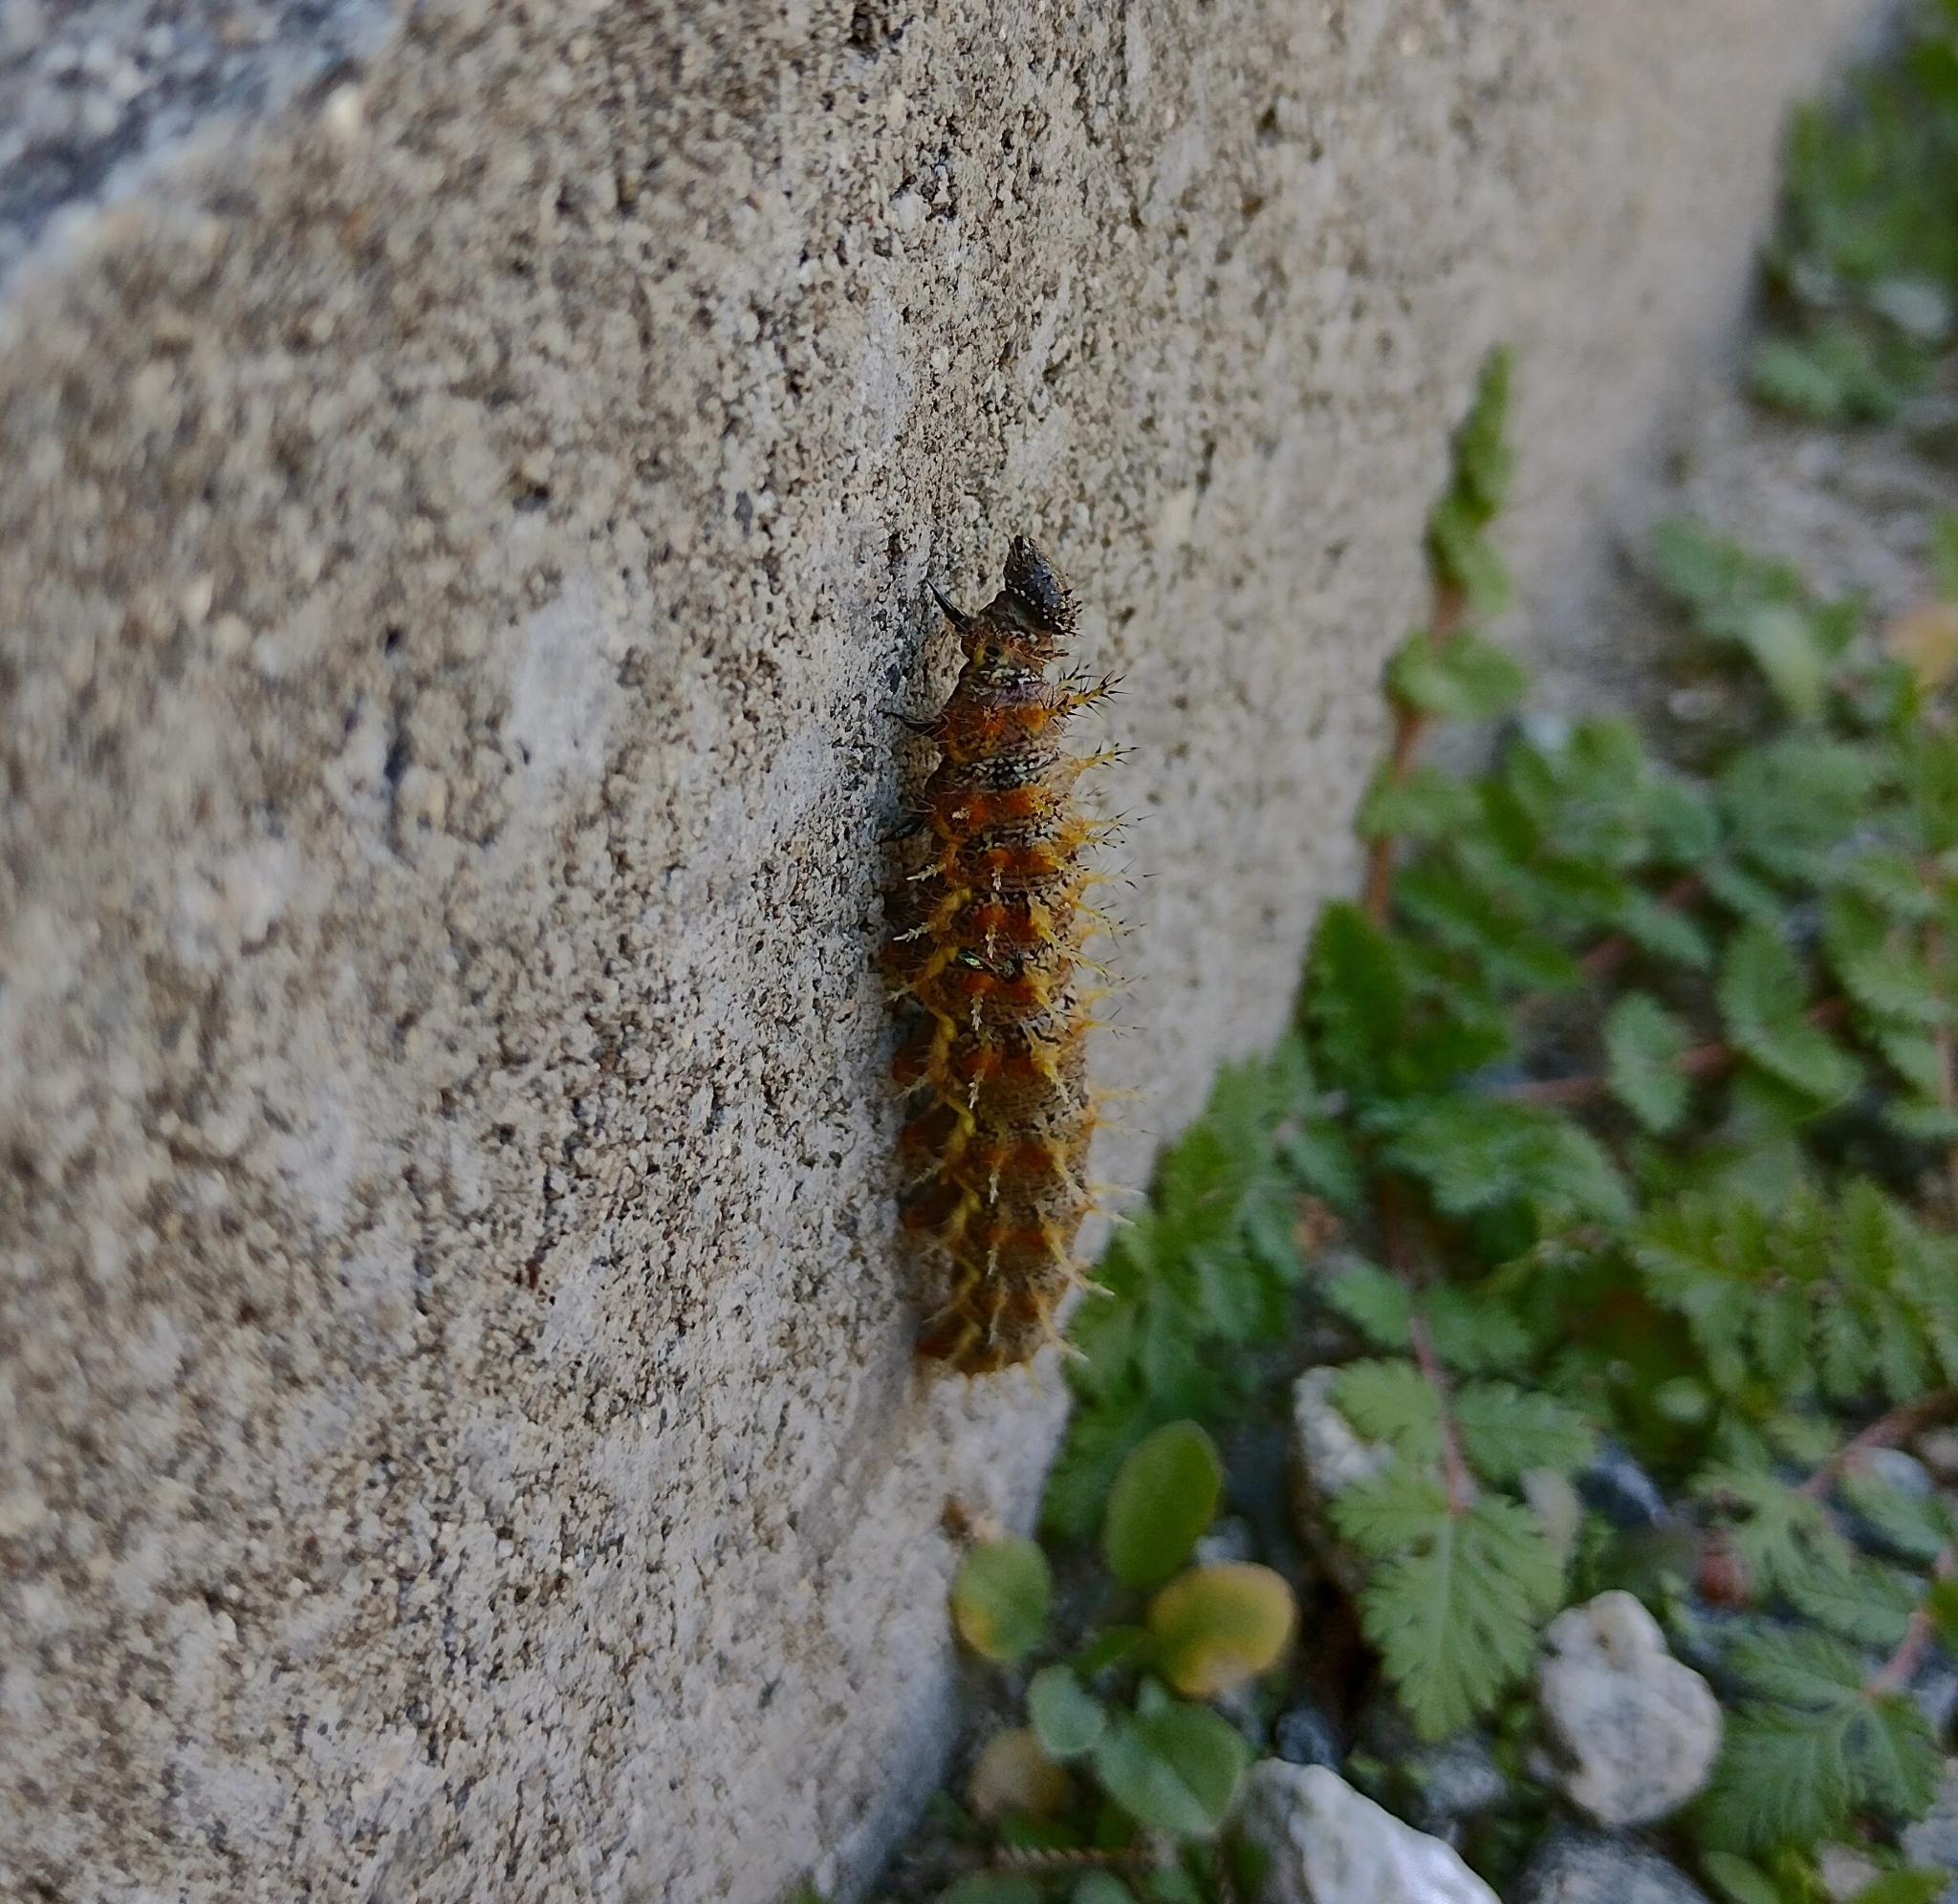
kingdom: Animalia
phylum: Arthropoda
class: Insecta
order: Lepidoptera
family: Nymphalidae
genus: Vanessa
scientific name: Vanessa atalanta
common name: Red admiral
